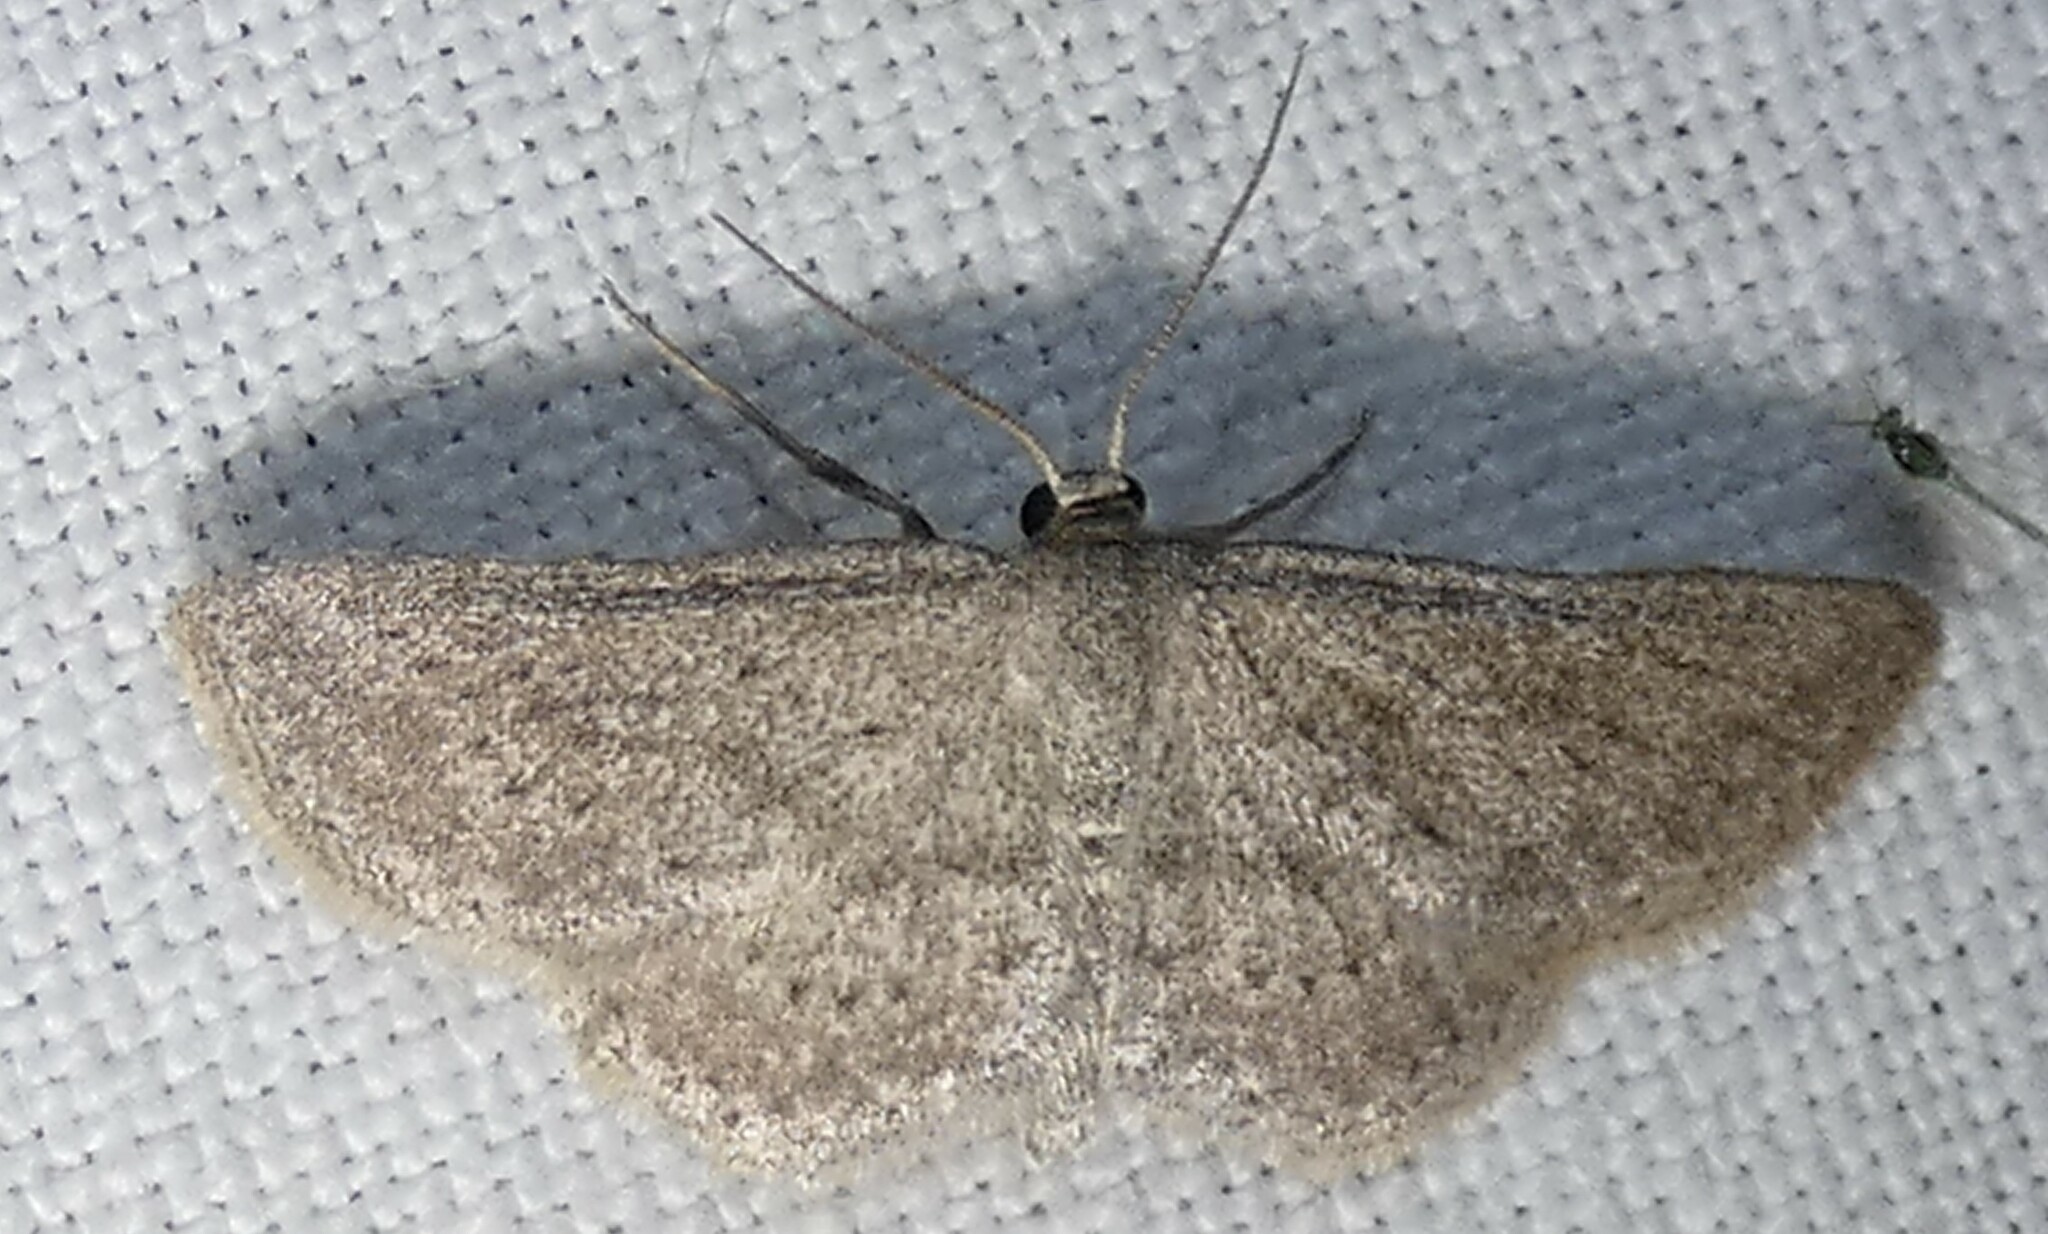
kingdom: Animalia
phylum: Arthropoda
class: Insecta
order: Lepidoptera
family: Geometridae
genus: Lobocleta
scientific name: Lobocleta ossularia
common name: Drab brown wave
